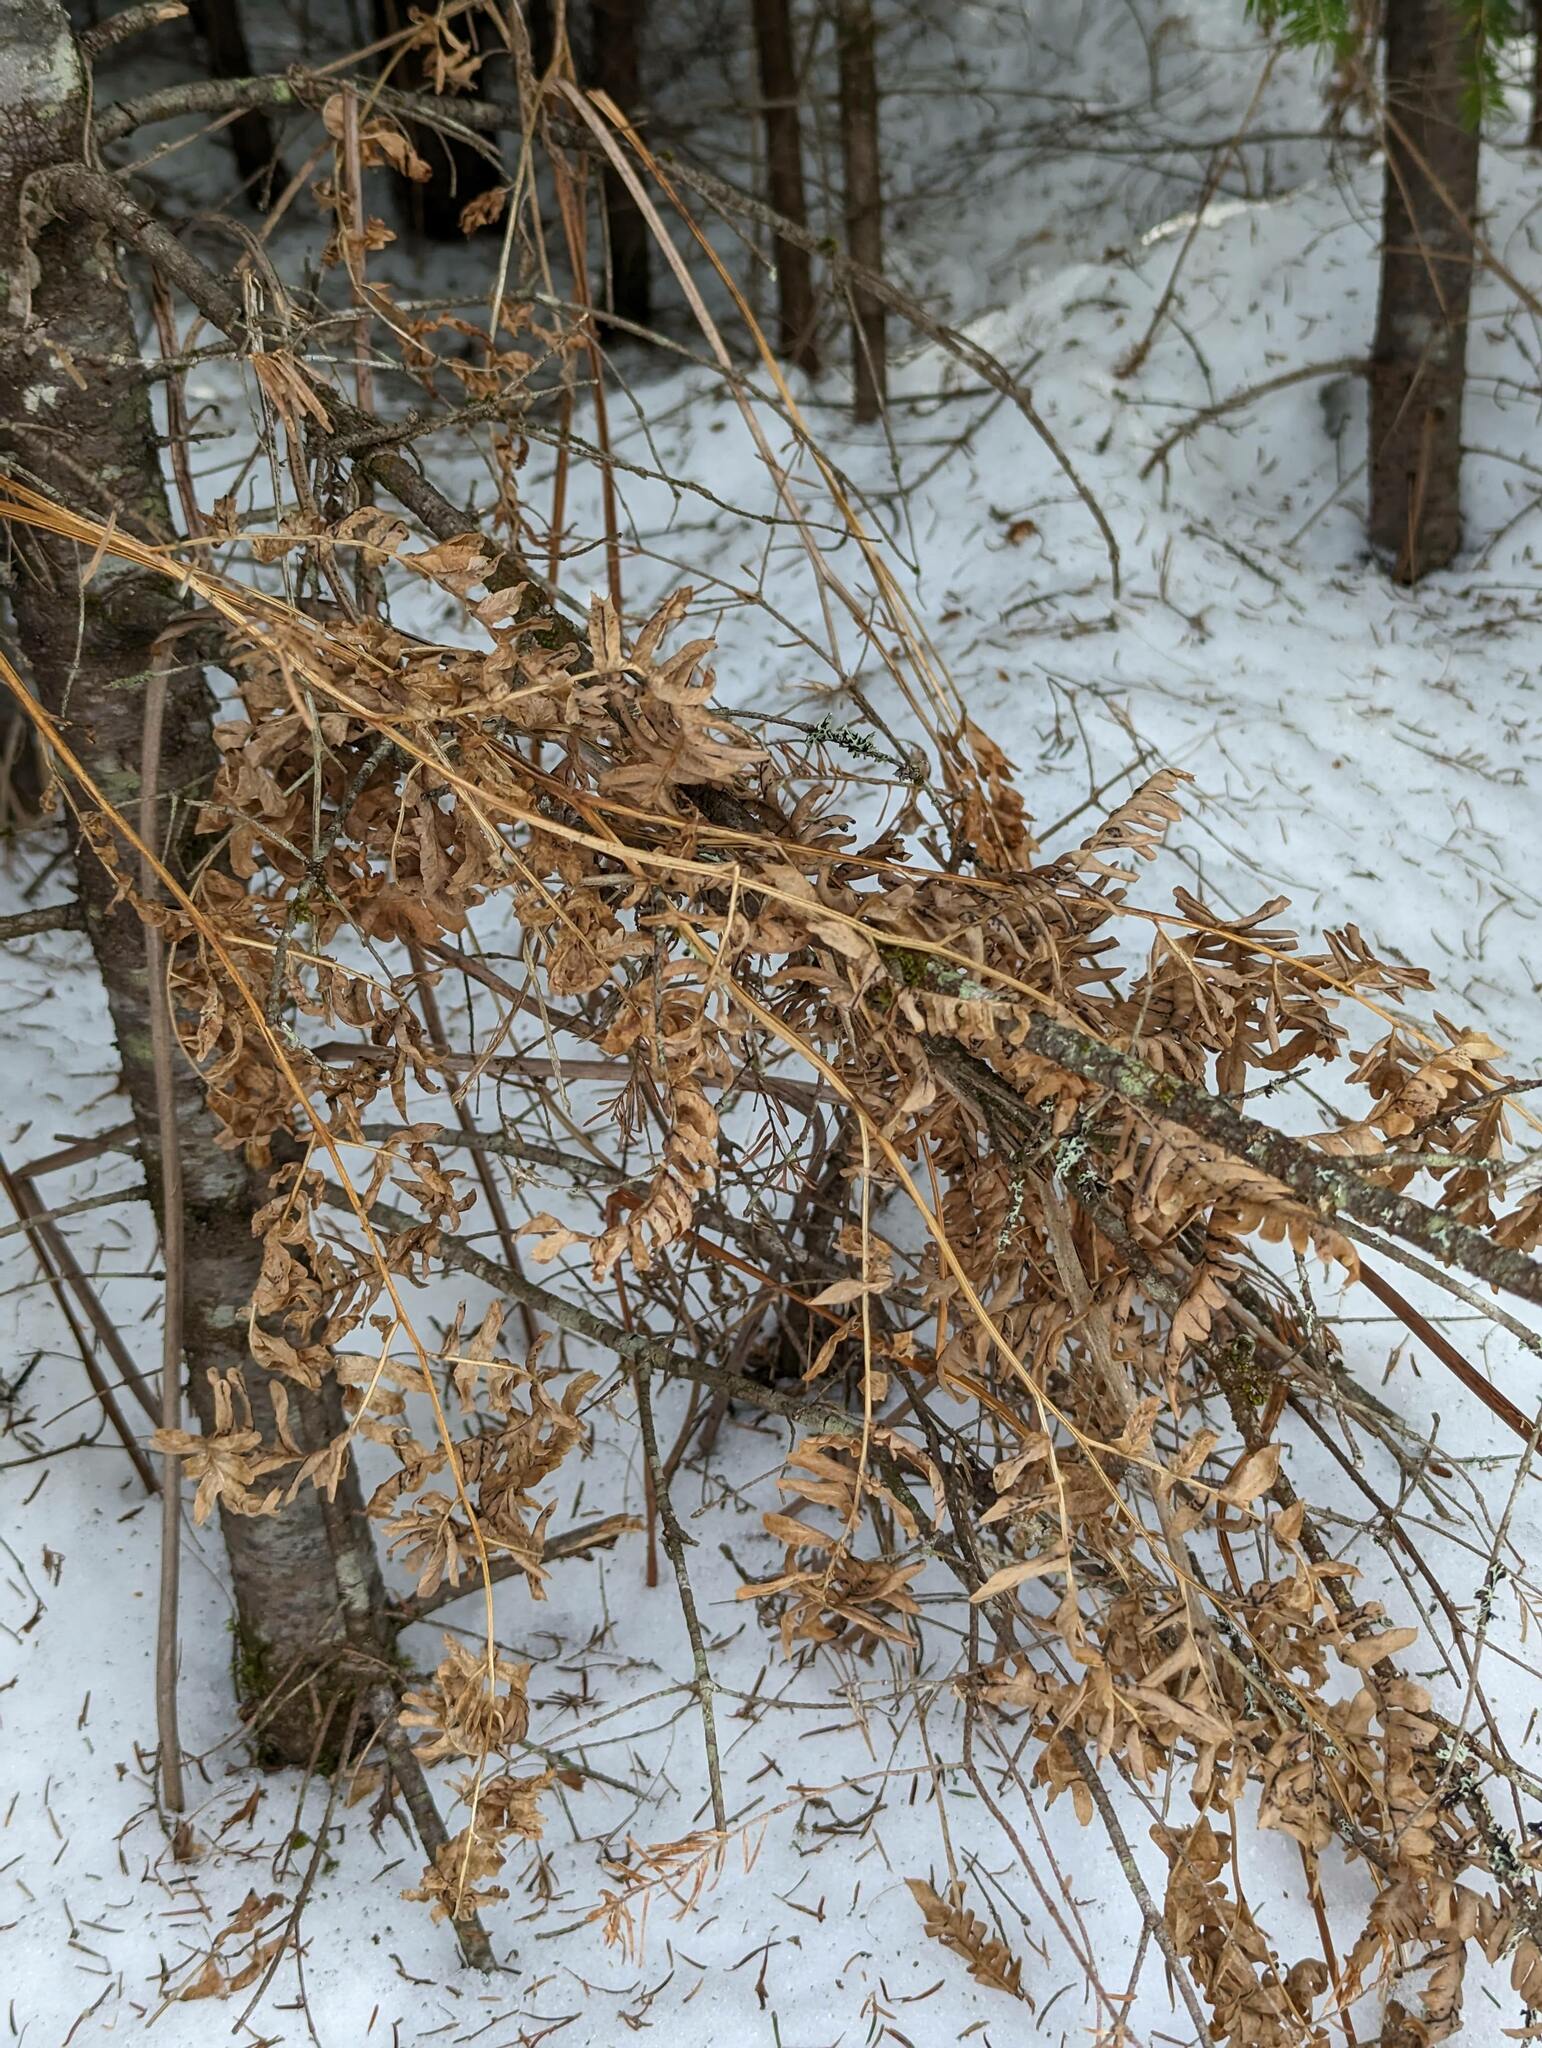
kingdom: Plantae
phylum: Tracheophyta
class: Polypodiopsida
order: Polypodiales
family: Dennstaedtiaceae
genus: Pteridium
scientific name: Pteridium aquilinum
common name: Bracken
